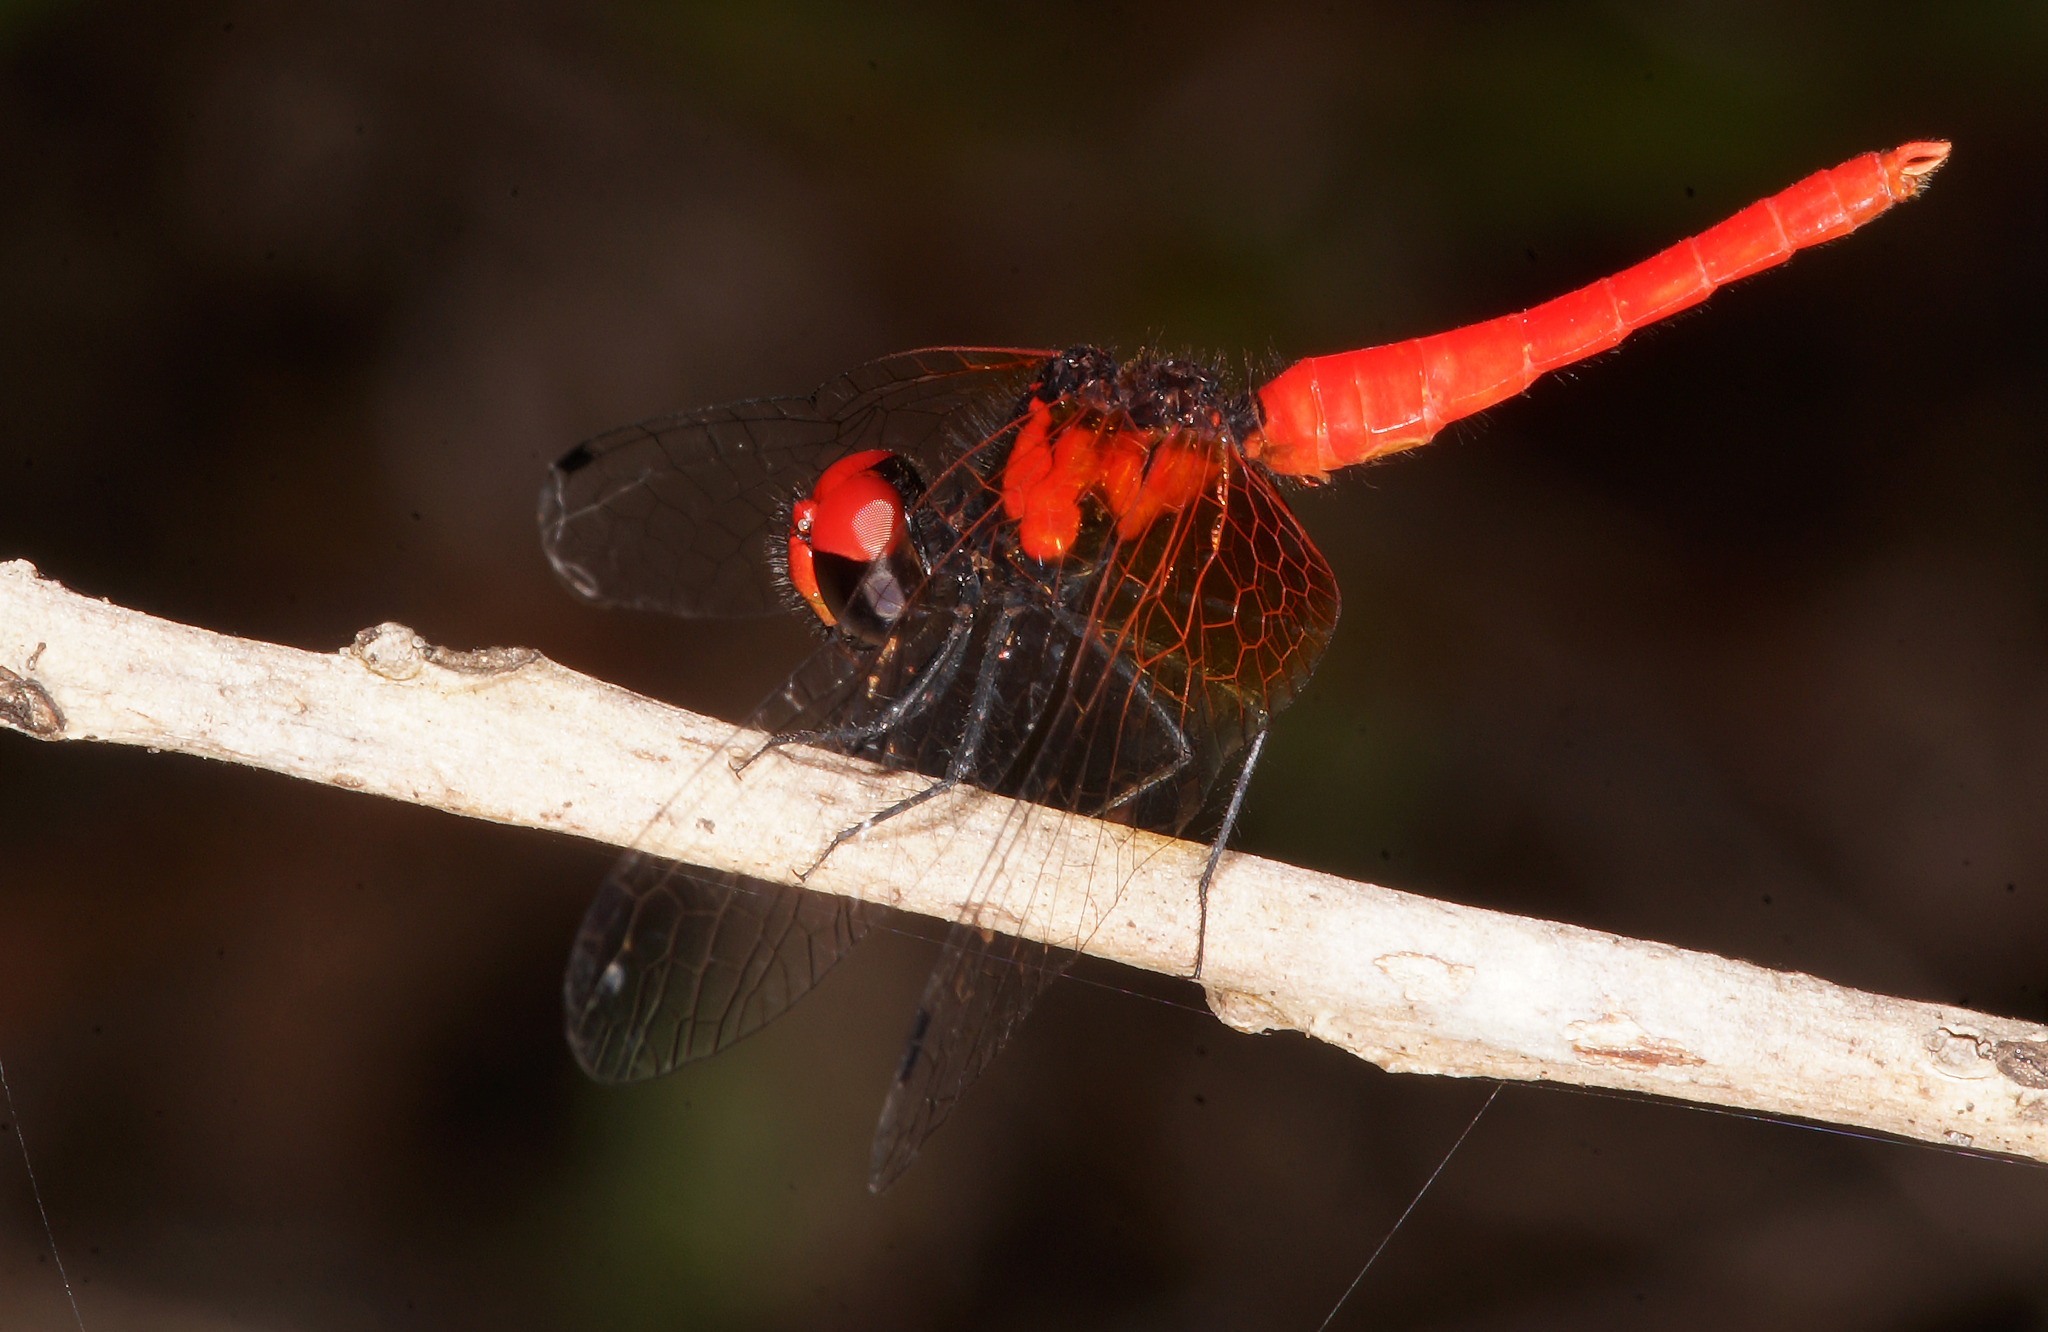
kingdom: Animalia
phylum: Arthropoda
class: Insecta
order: Odonata
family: Libellulidae
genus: Nannophya
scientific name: Nannophya pygmaea
